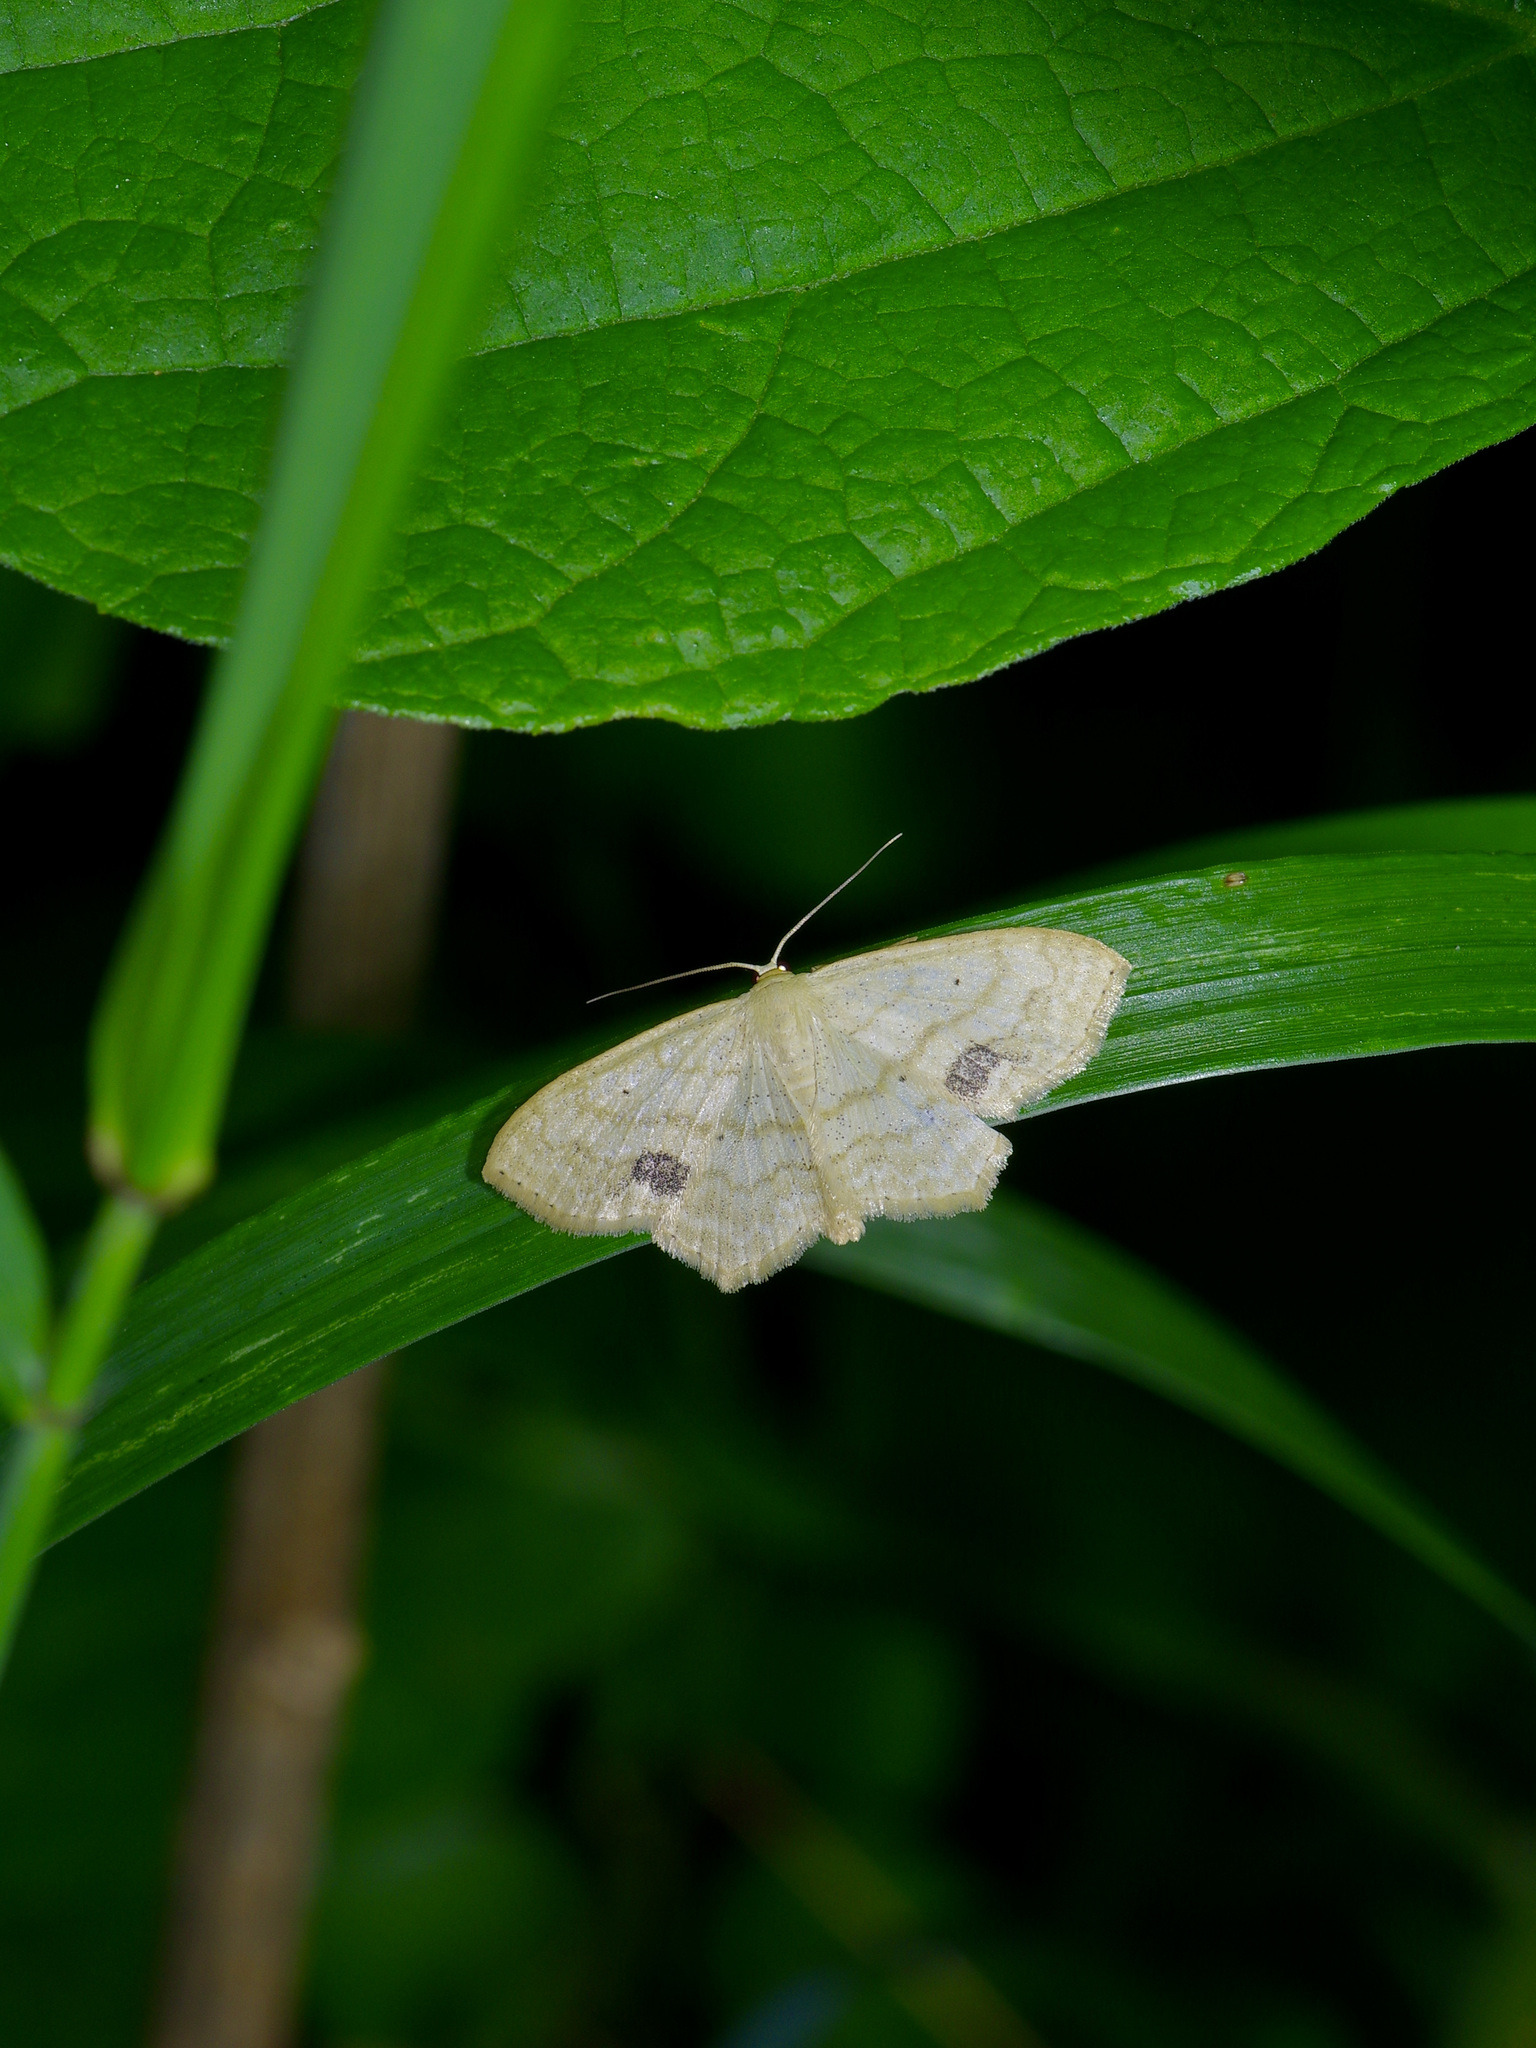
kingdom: Animalia
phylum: Arthropoda
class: Insecta
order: Lepidoptera
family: Geometridae
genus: Scopula
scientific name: Scopula limboundata
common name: Large lace border
